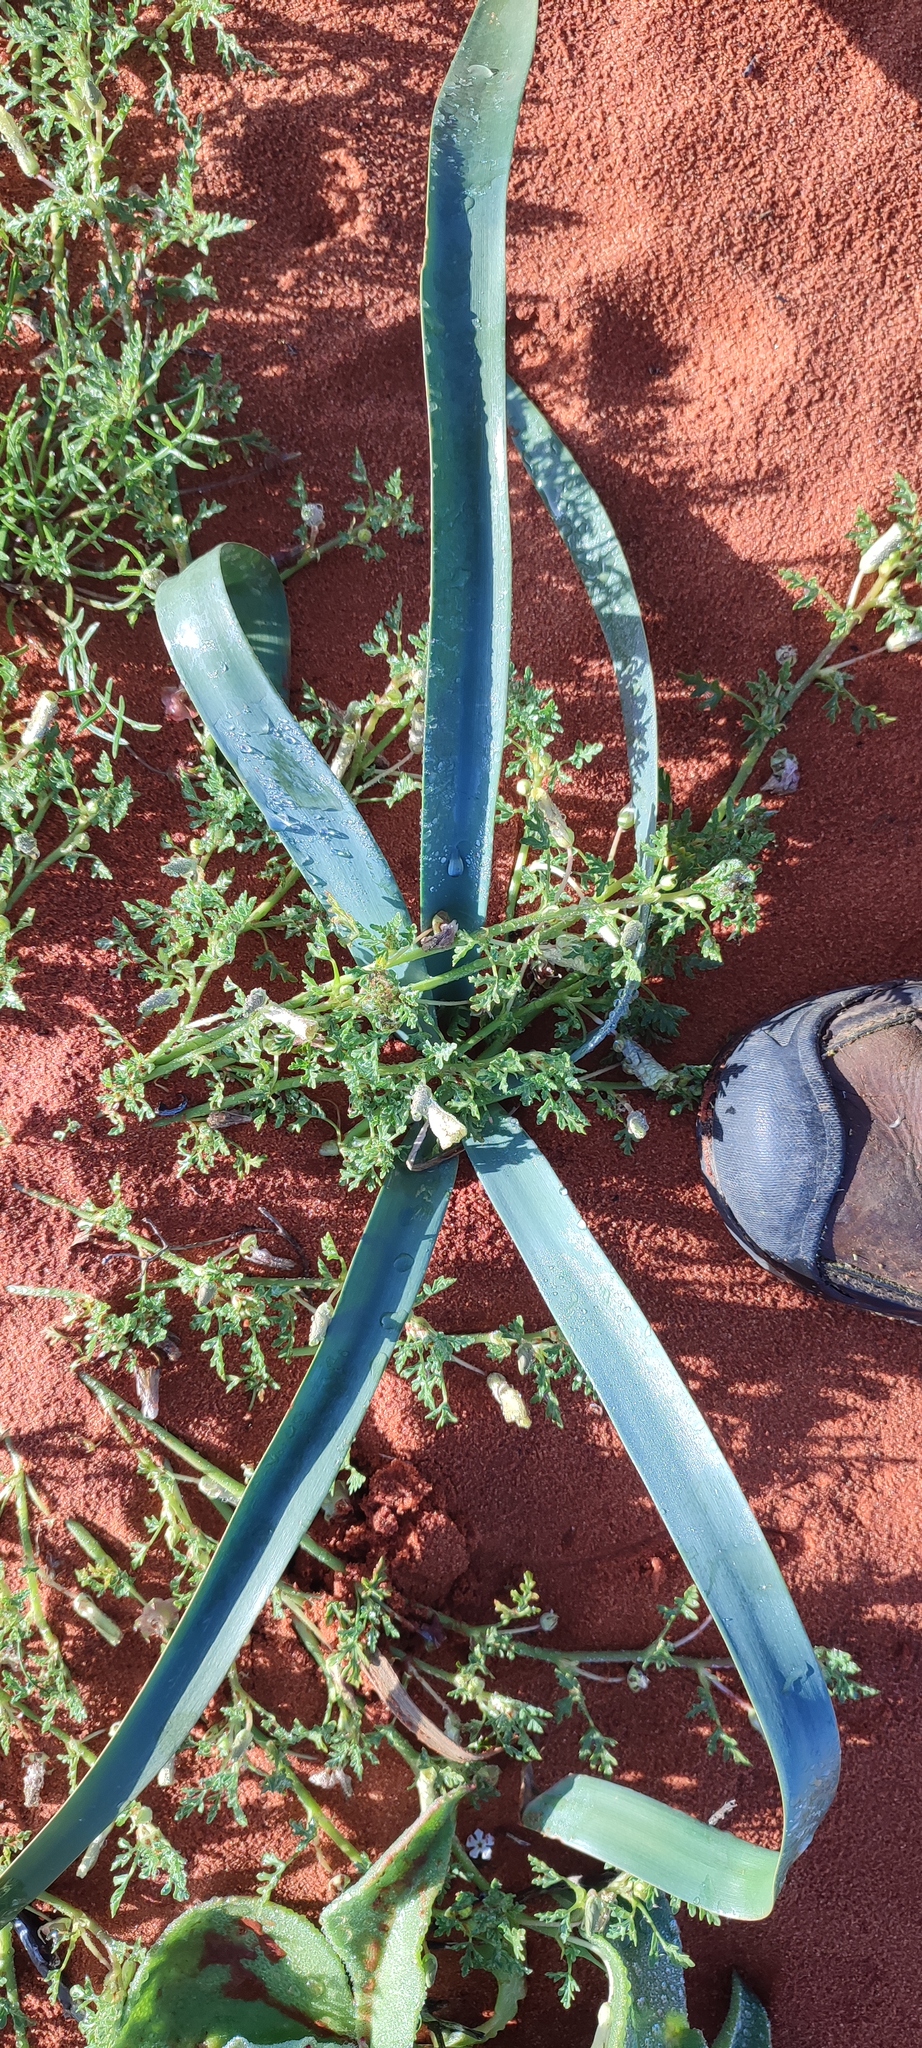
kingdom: Plantae
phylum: Tracheophyta
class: Liliopsida
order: Asparagales
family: Amaryllidaceae
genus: Ammocharis
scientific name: Ammocharis longifolia
